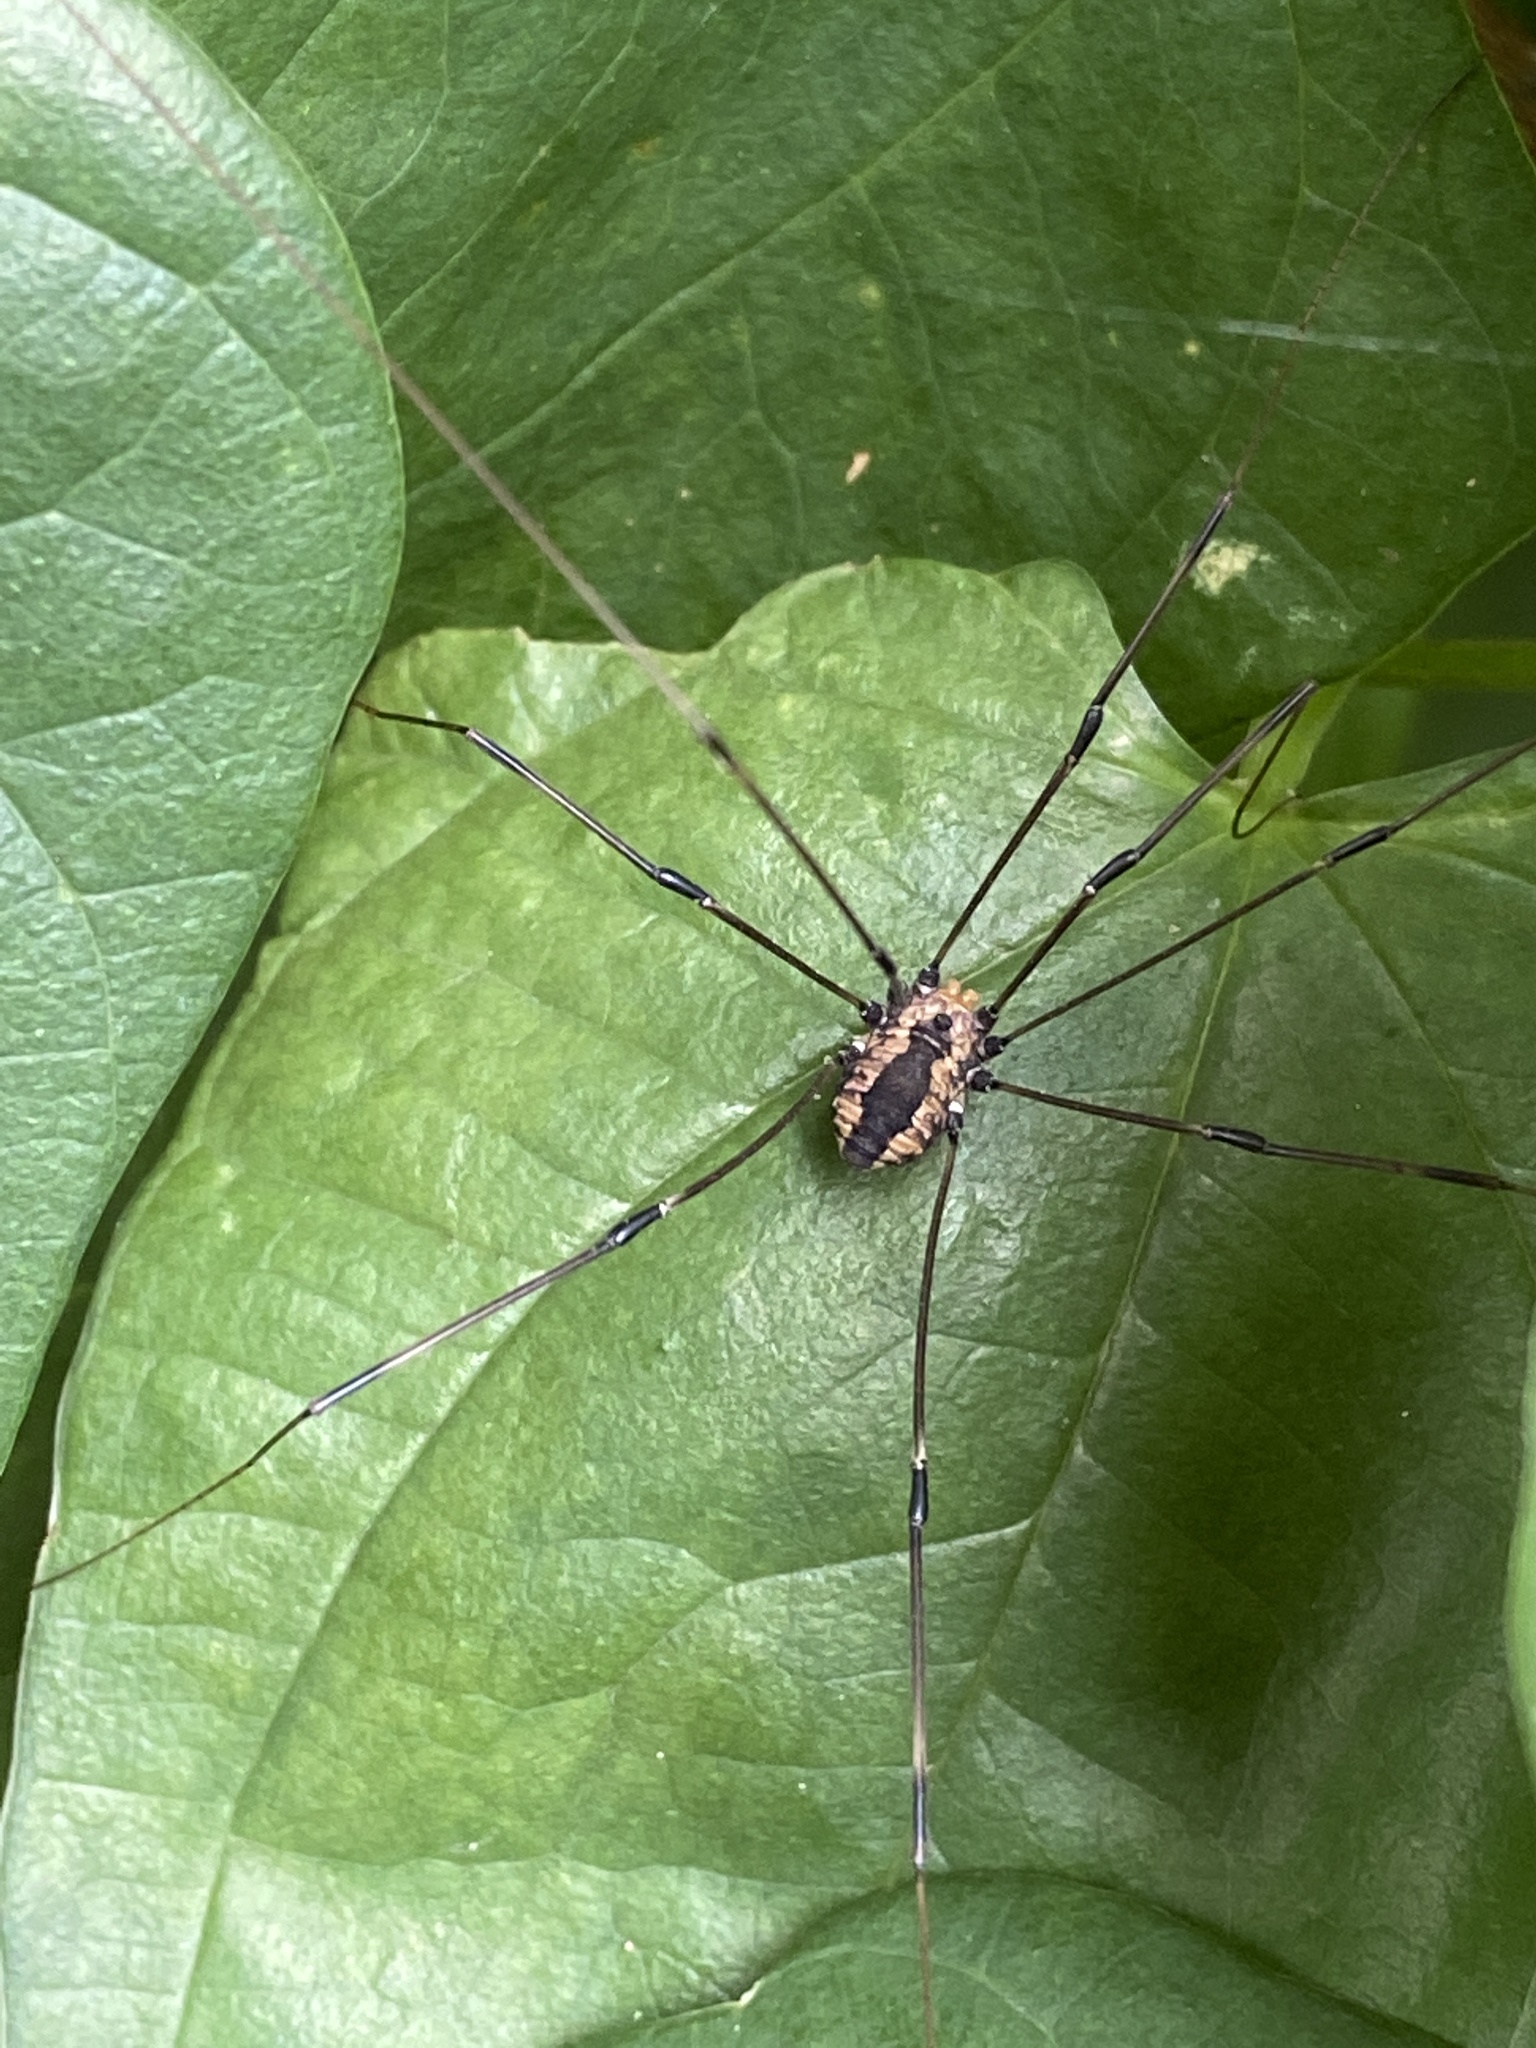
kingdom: Animalia
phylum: Arthropoda
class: Arachnida
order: Opiliones
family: Sclerosomatidae
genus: Leiobunum
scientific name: Leiobunum vittatum
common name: Eastern harvestman
